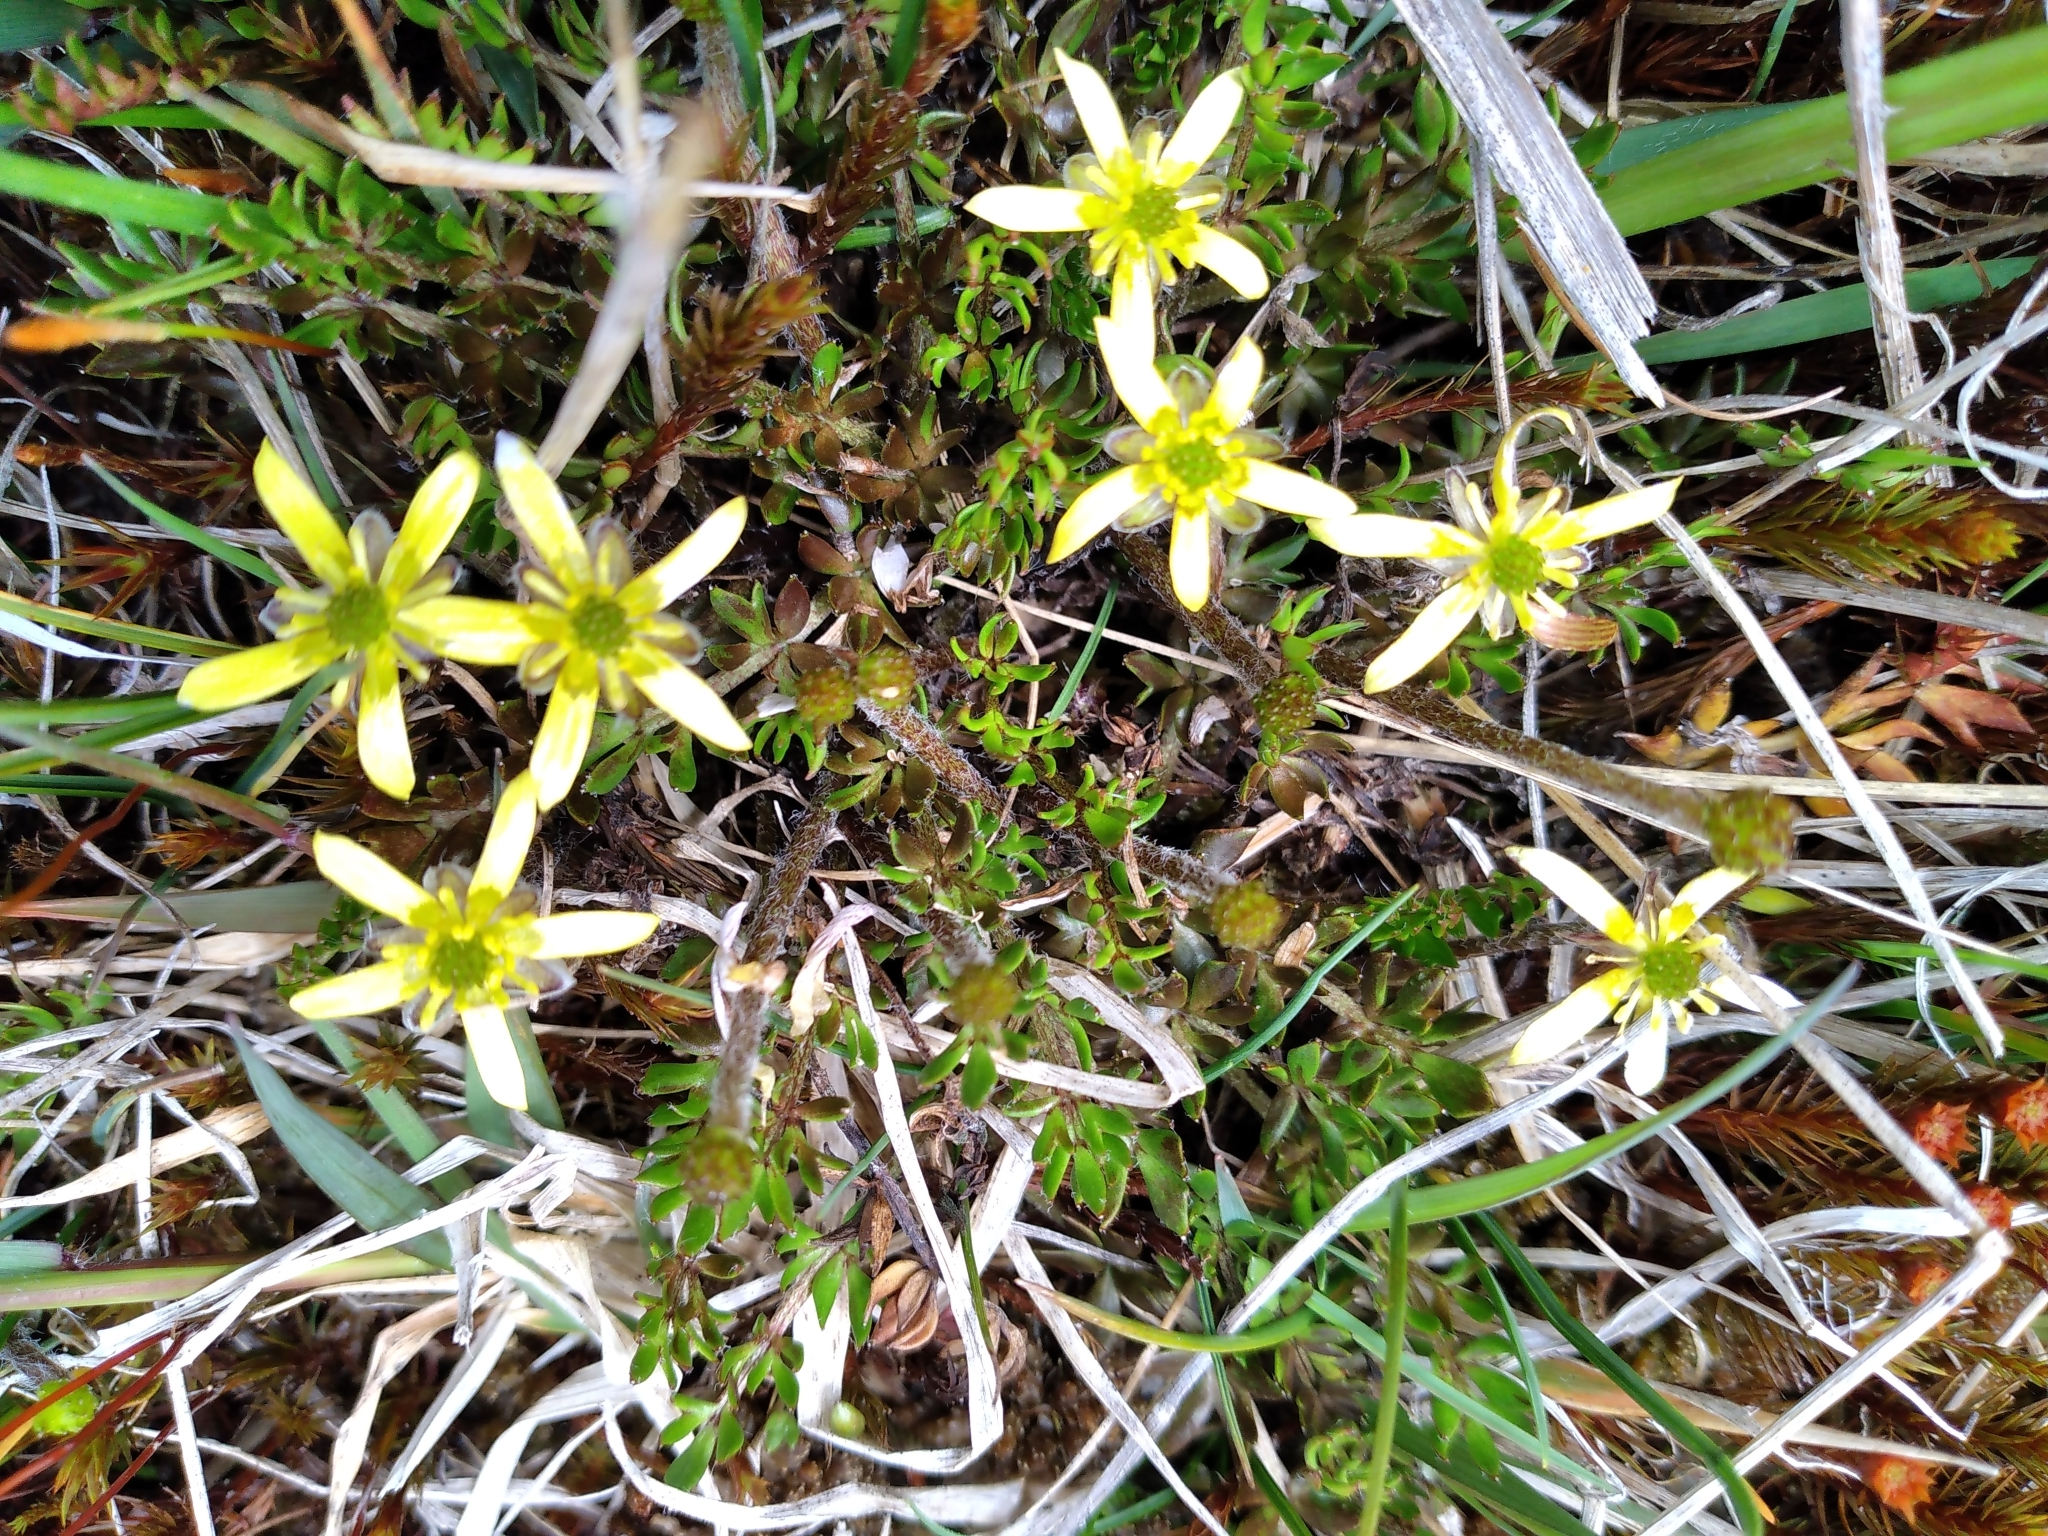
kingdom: Plantae
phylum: Tracheophyta
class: Magnoliopsida
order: Ranunculales
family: Ranunculaceae
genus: Ranunculus
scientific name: Ranunculus gracilipes
